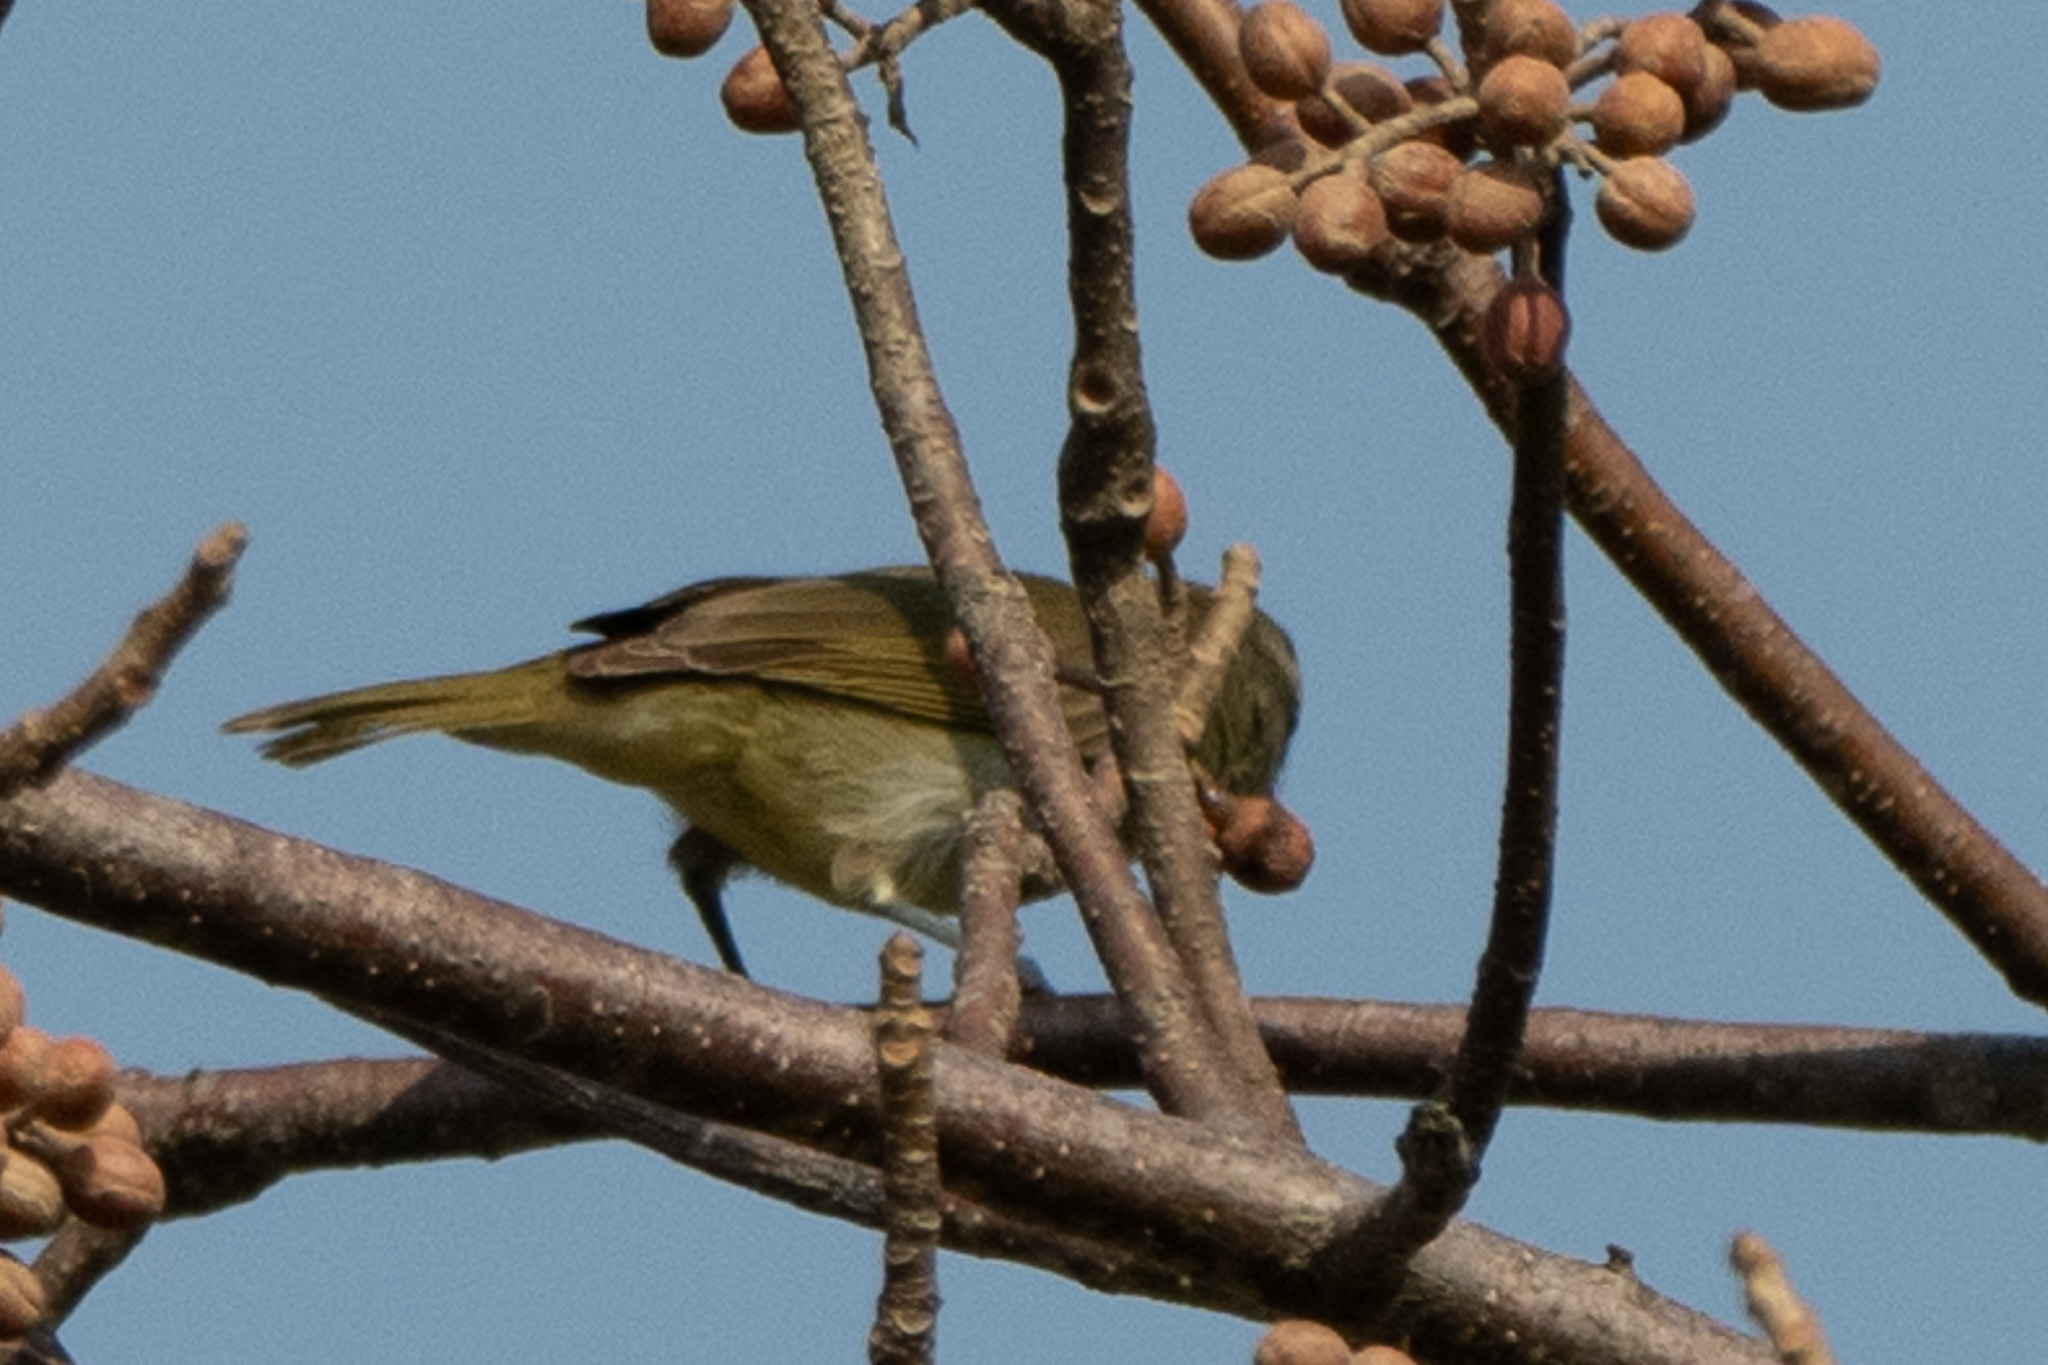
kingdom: Animalia
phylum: Chordata
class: Aves
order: Passeriformes
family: Vireonidae
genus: Vireo
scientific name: Vireo magister
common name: Yucatan vireo
